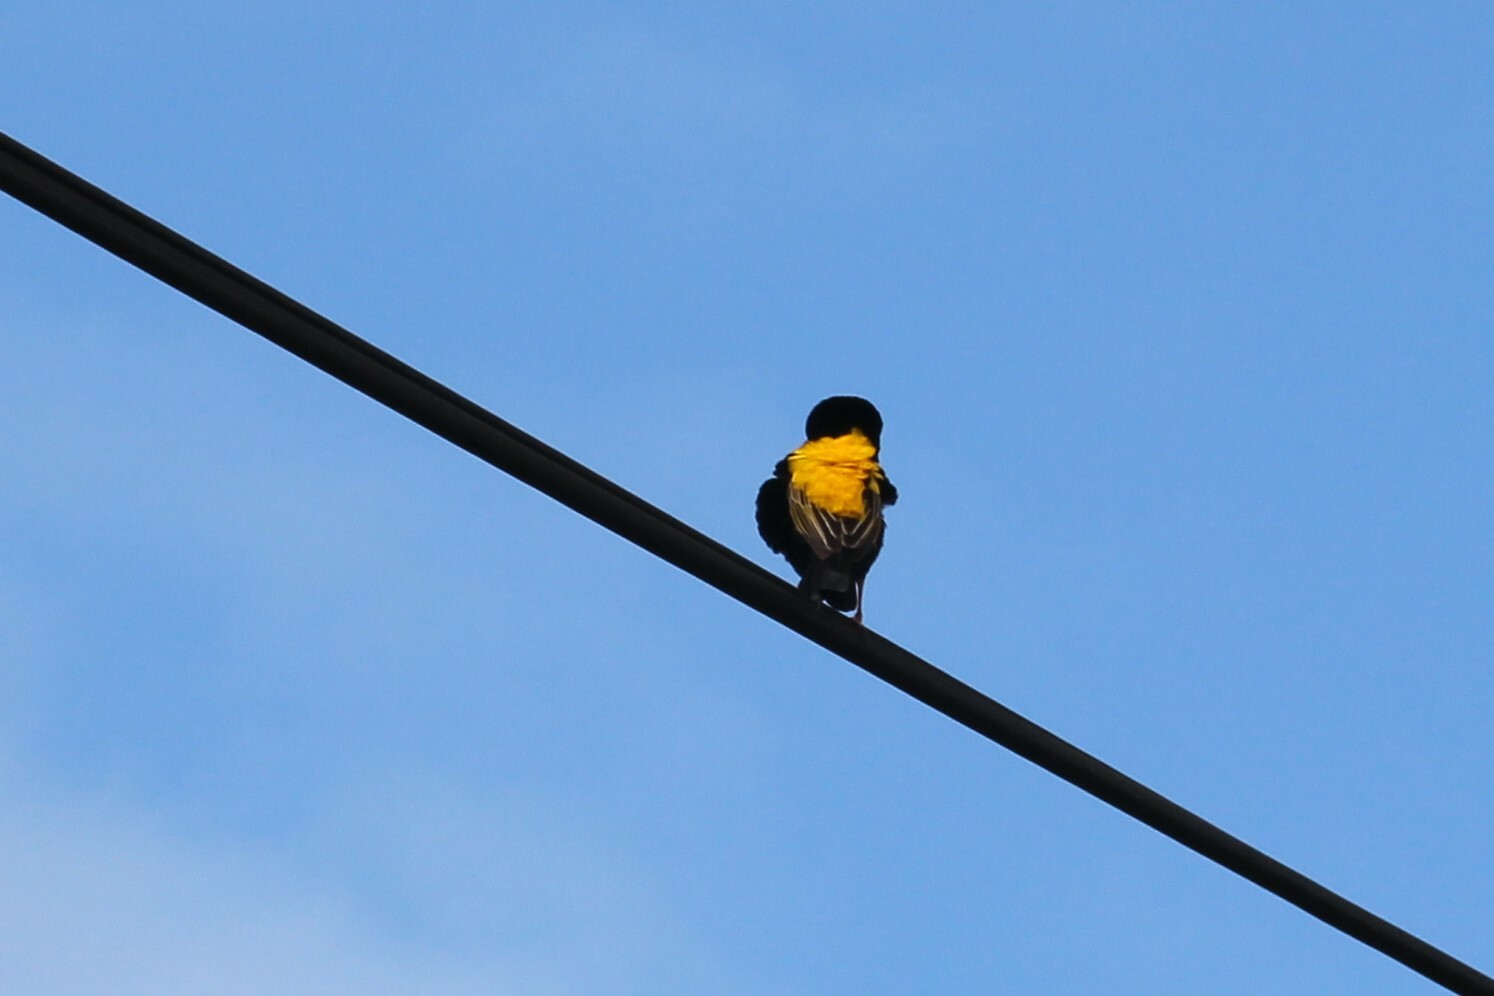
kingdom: Animalia
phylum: Chordata
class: Aves
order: Passeriformes
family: Ploceidae
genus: Euplectes
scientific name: Euplectes capensis
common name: Yellow bishop
